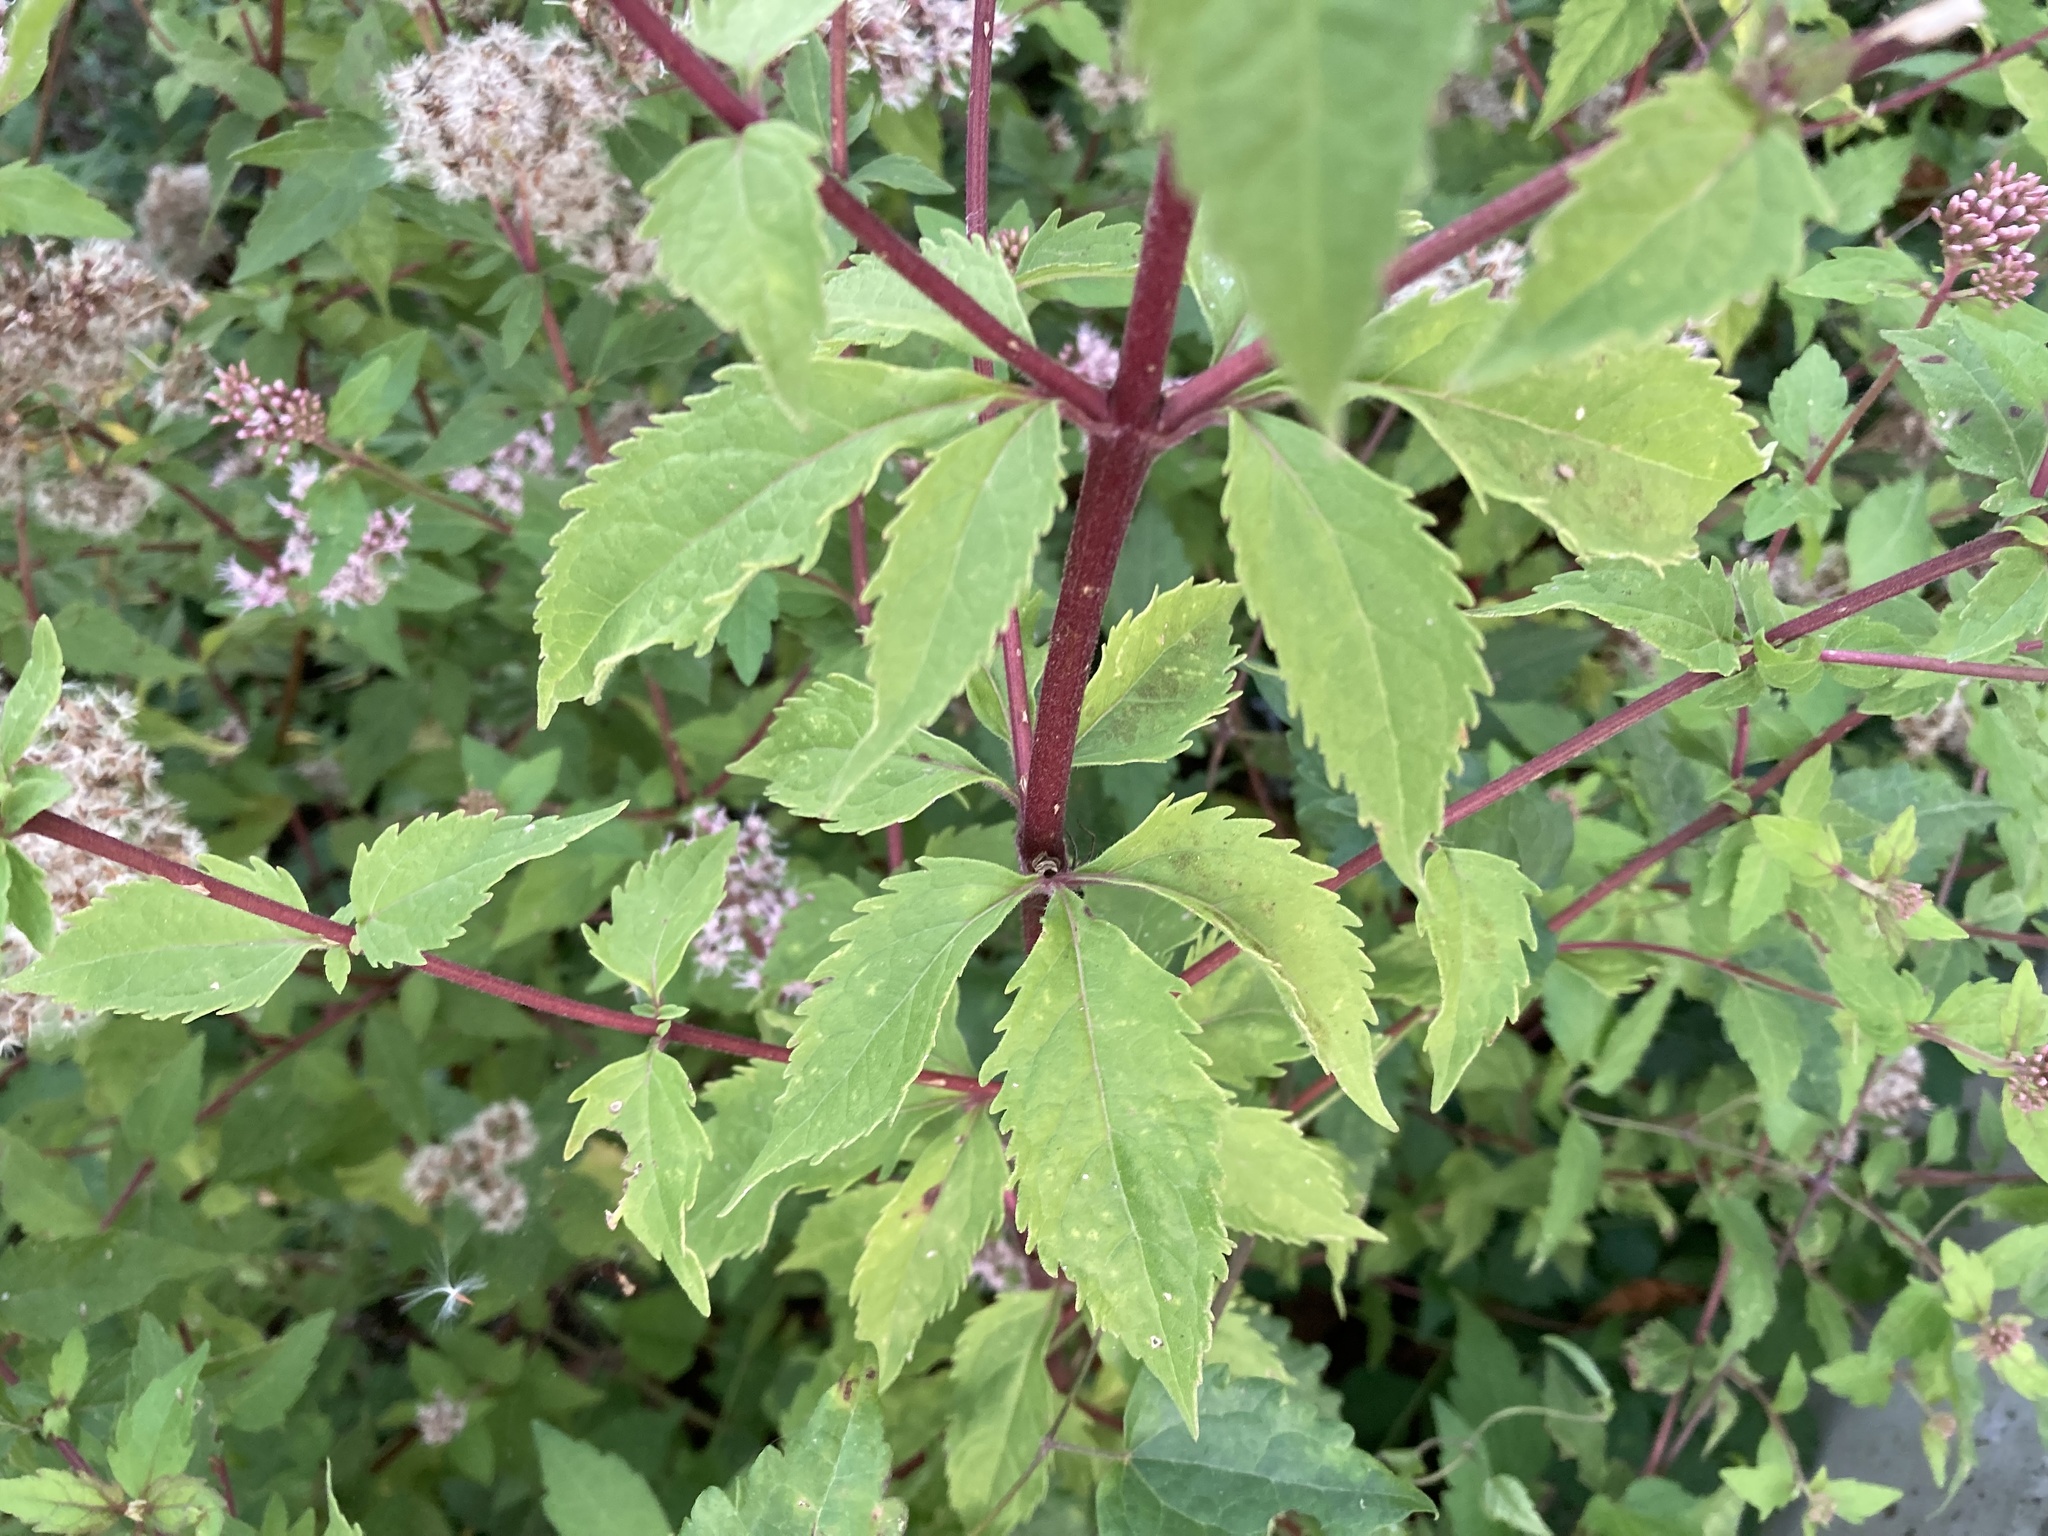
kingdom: Plantae
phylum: Tracheophyta
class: Magnoliopsida
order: Asterales
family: Asteraceae
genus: Eupatorium
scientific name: Eupatorium cannabinum
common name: Hemp-agrimony
